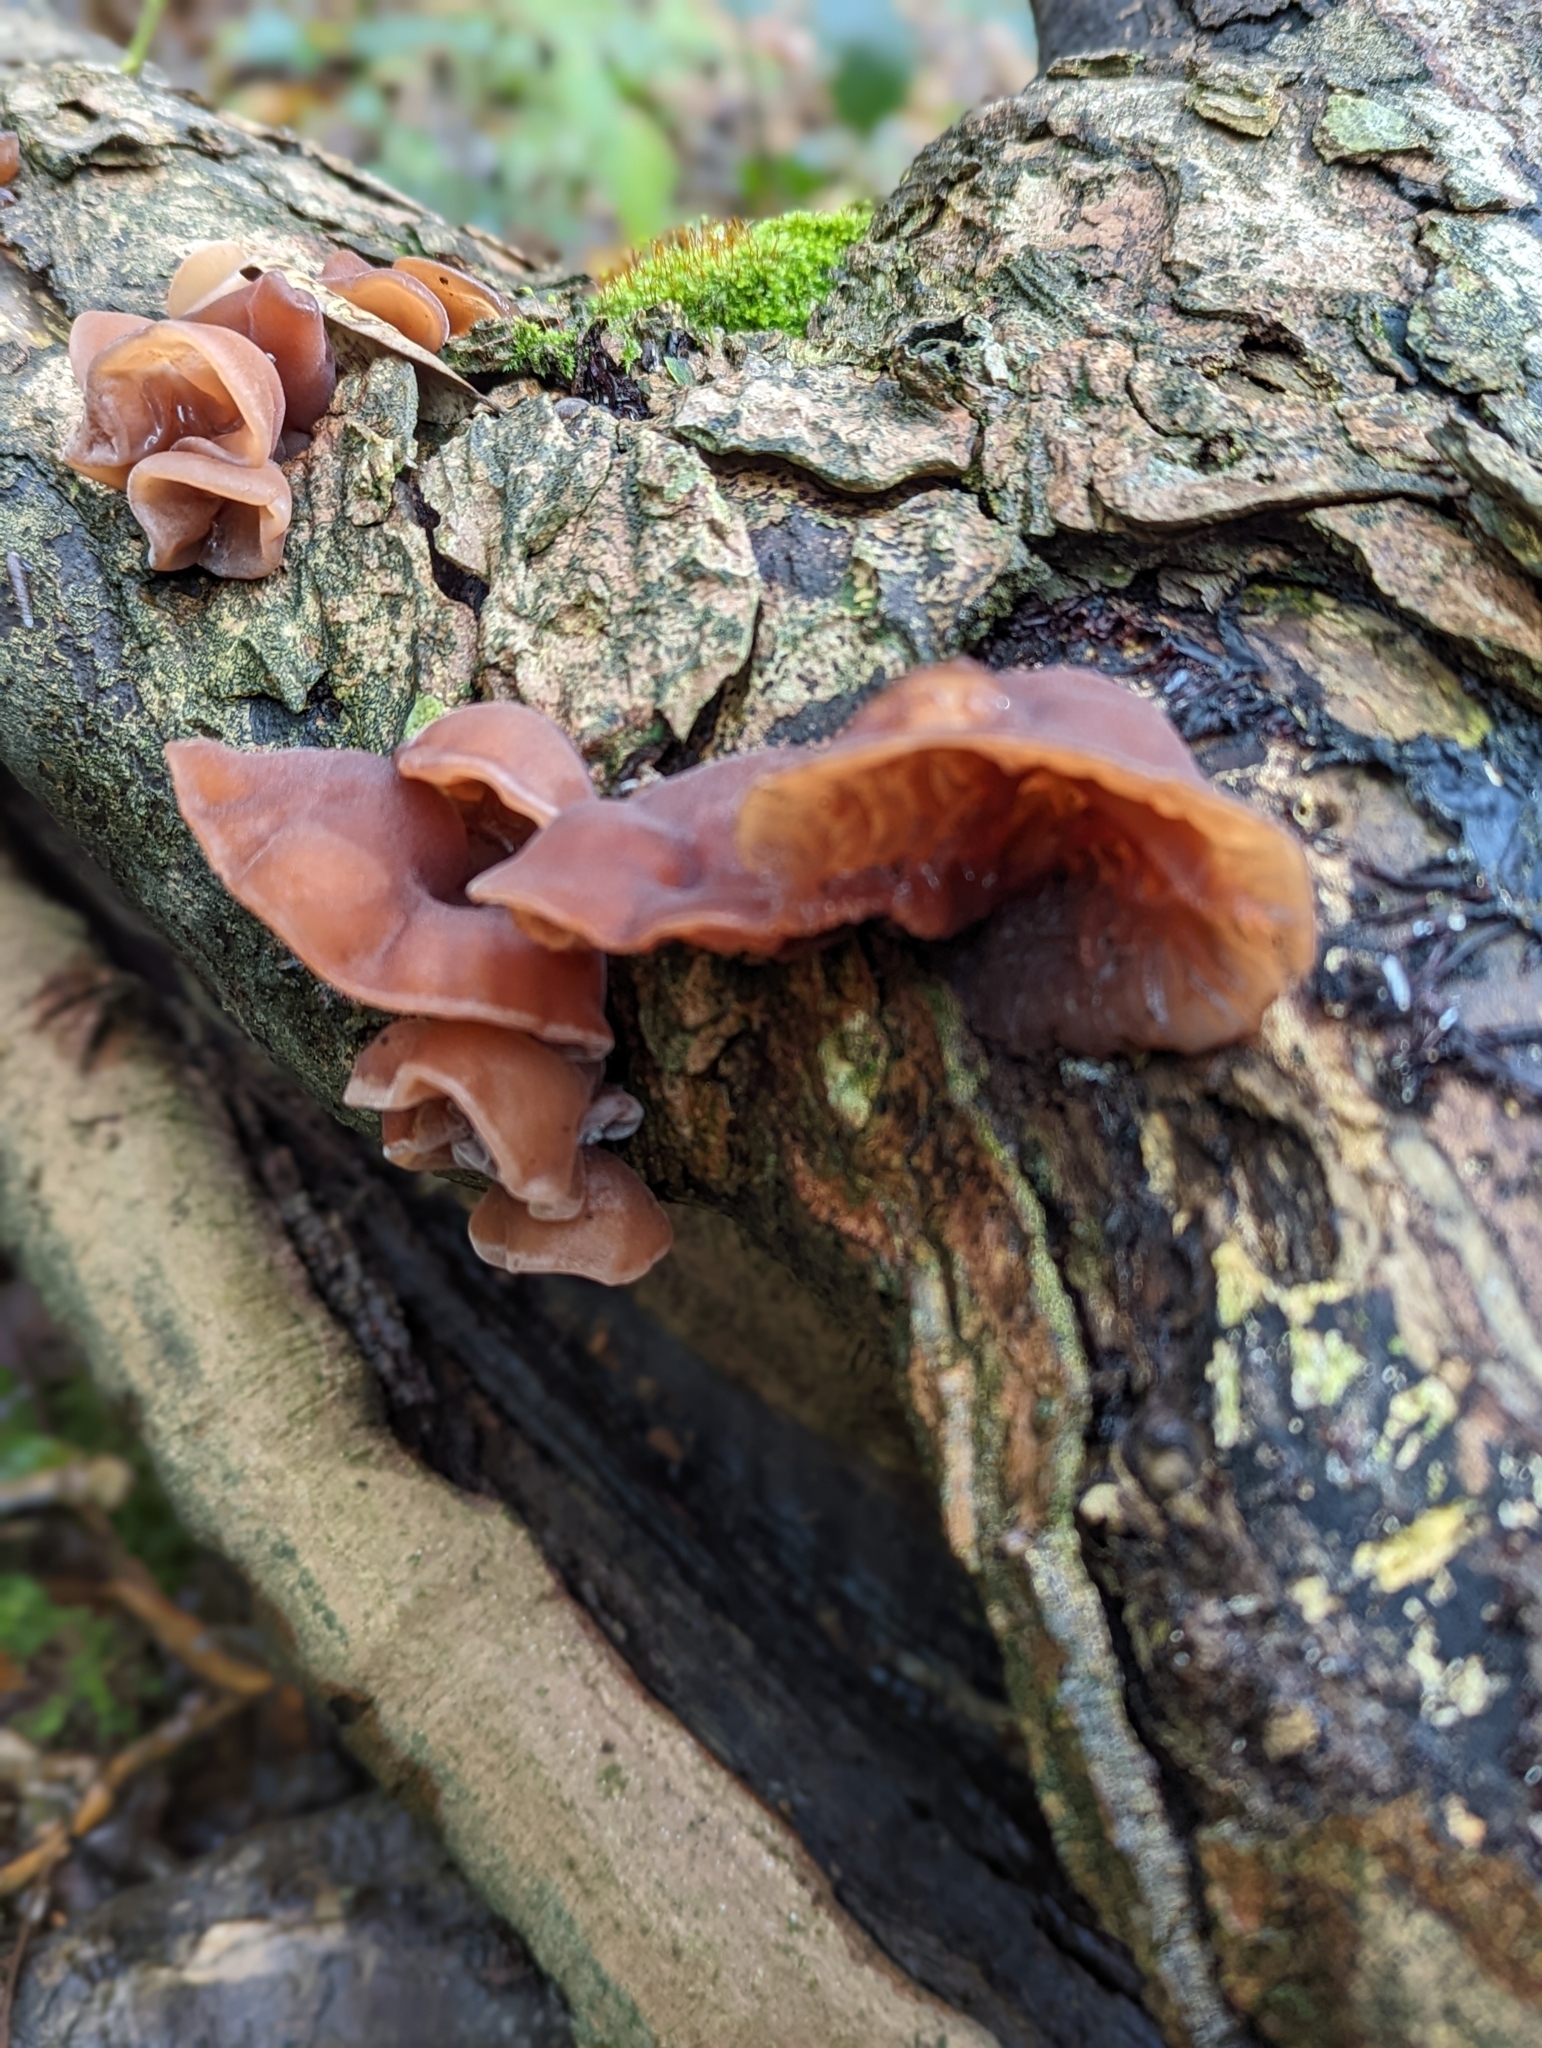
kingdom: Fungi
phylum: Basidiomycota
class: Agaricomycetes
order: Auriculariales
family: Auriculariaceae
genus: Auricularia
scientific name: Auricularia auricula-judae
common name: Jelly ear
